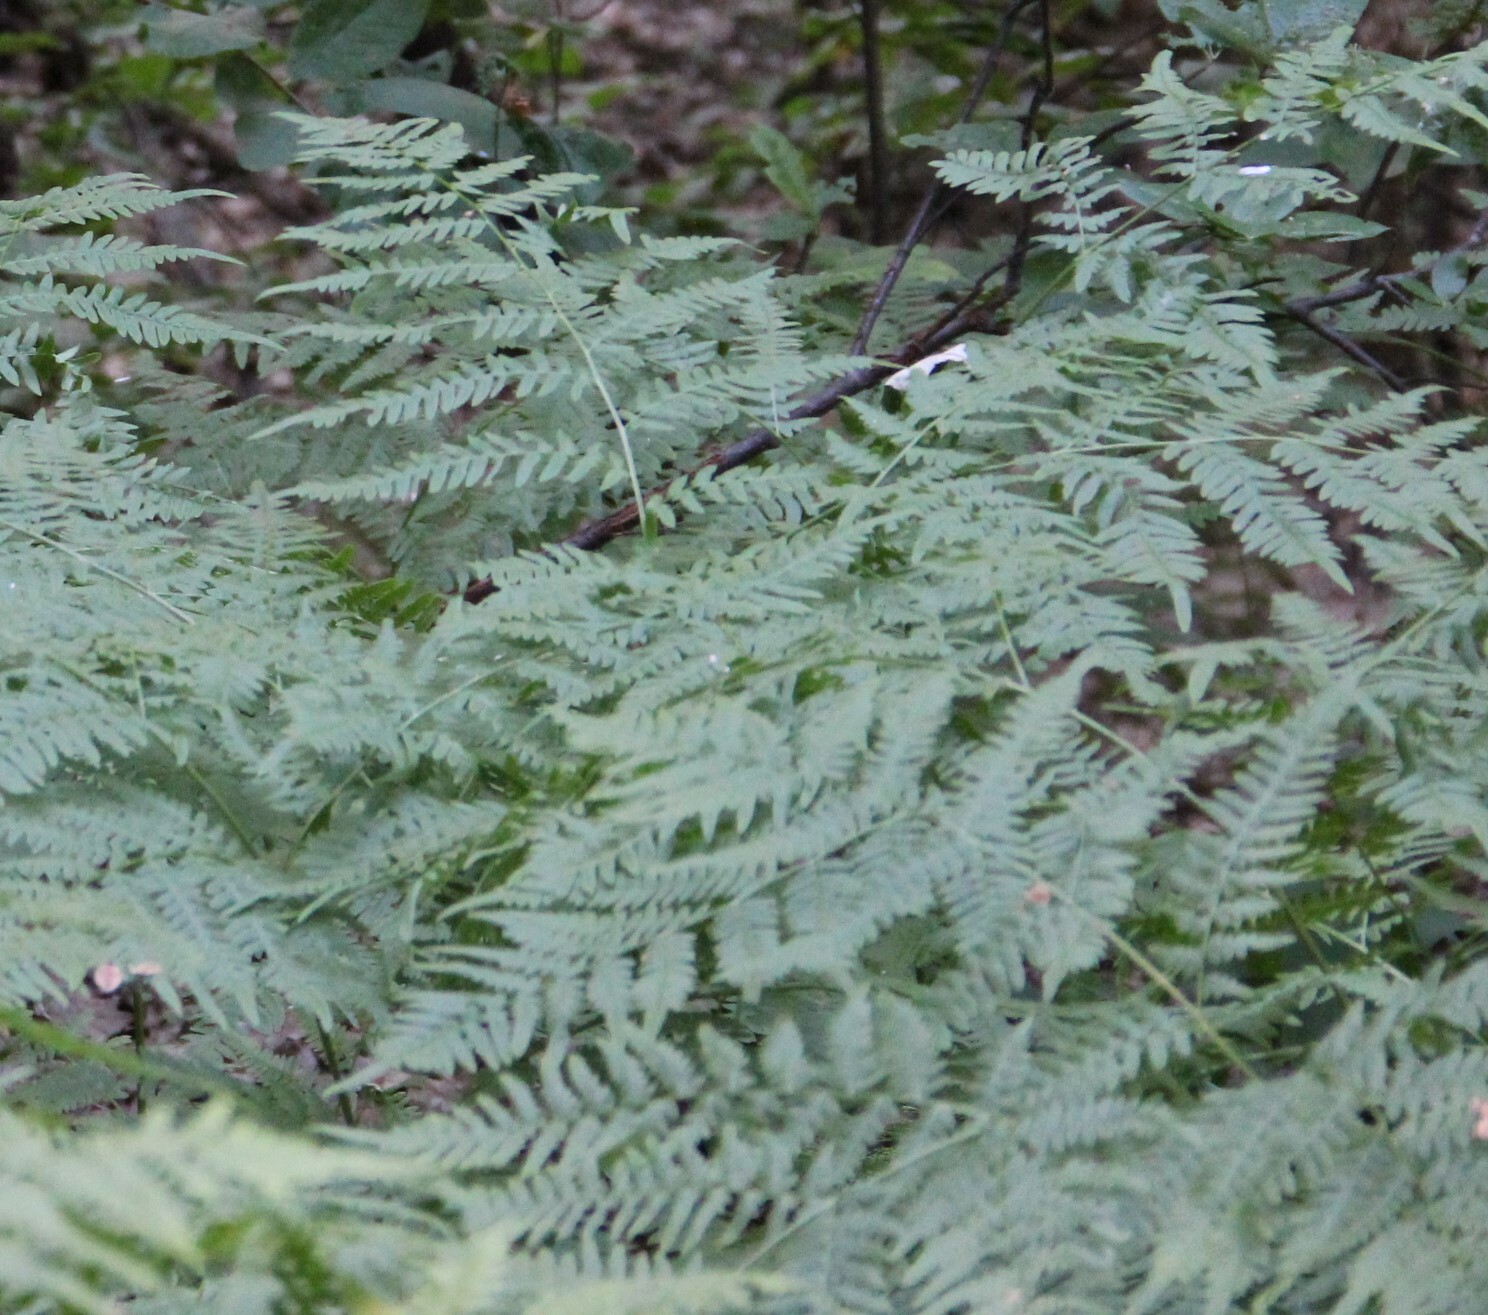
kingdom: Plantae
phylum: Tracheophyta
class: Polypodiopsida
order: Polypodiales
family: Dennstaedtiaceae
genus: Pteridium
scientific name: Pteridium aquilinum
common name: Bracken
